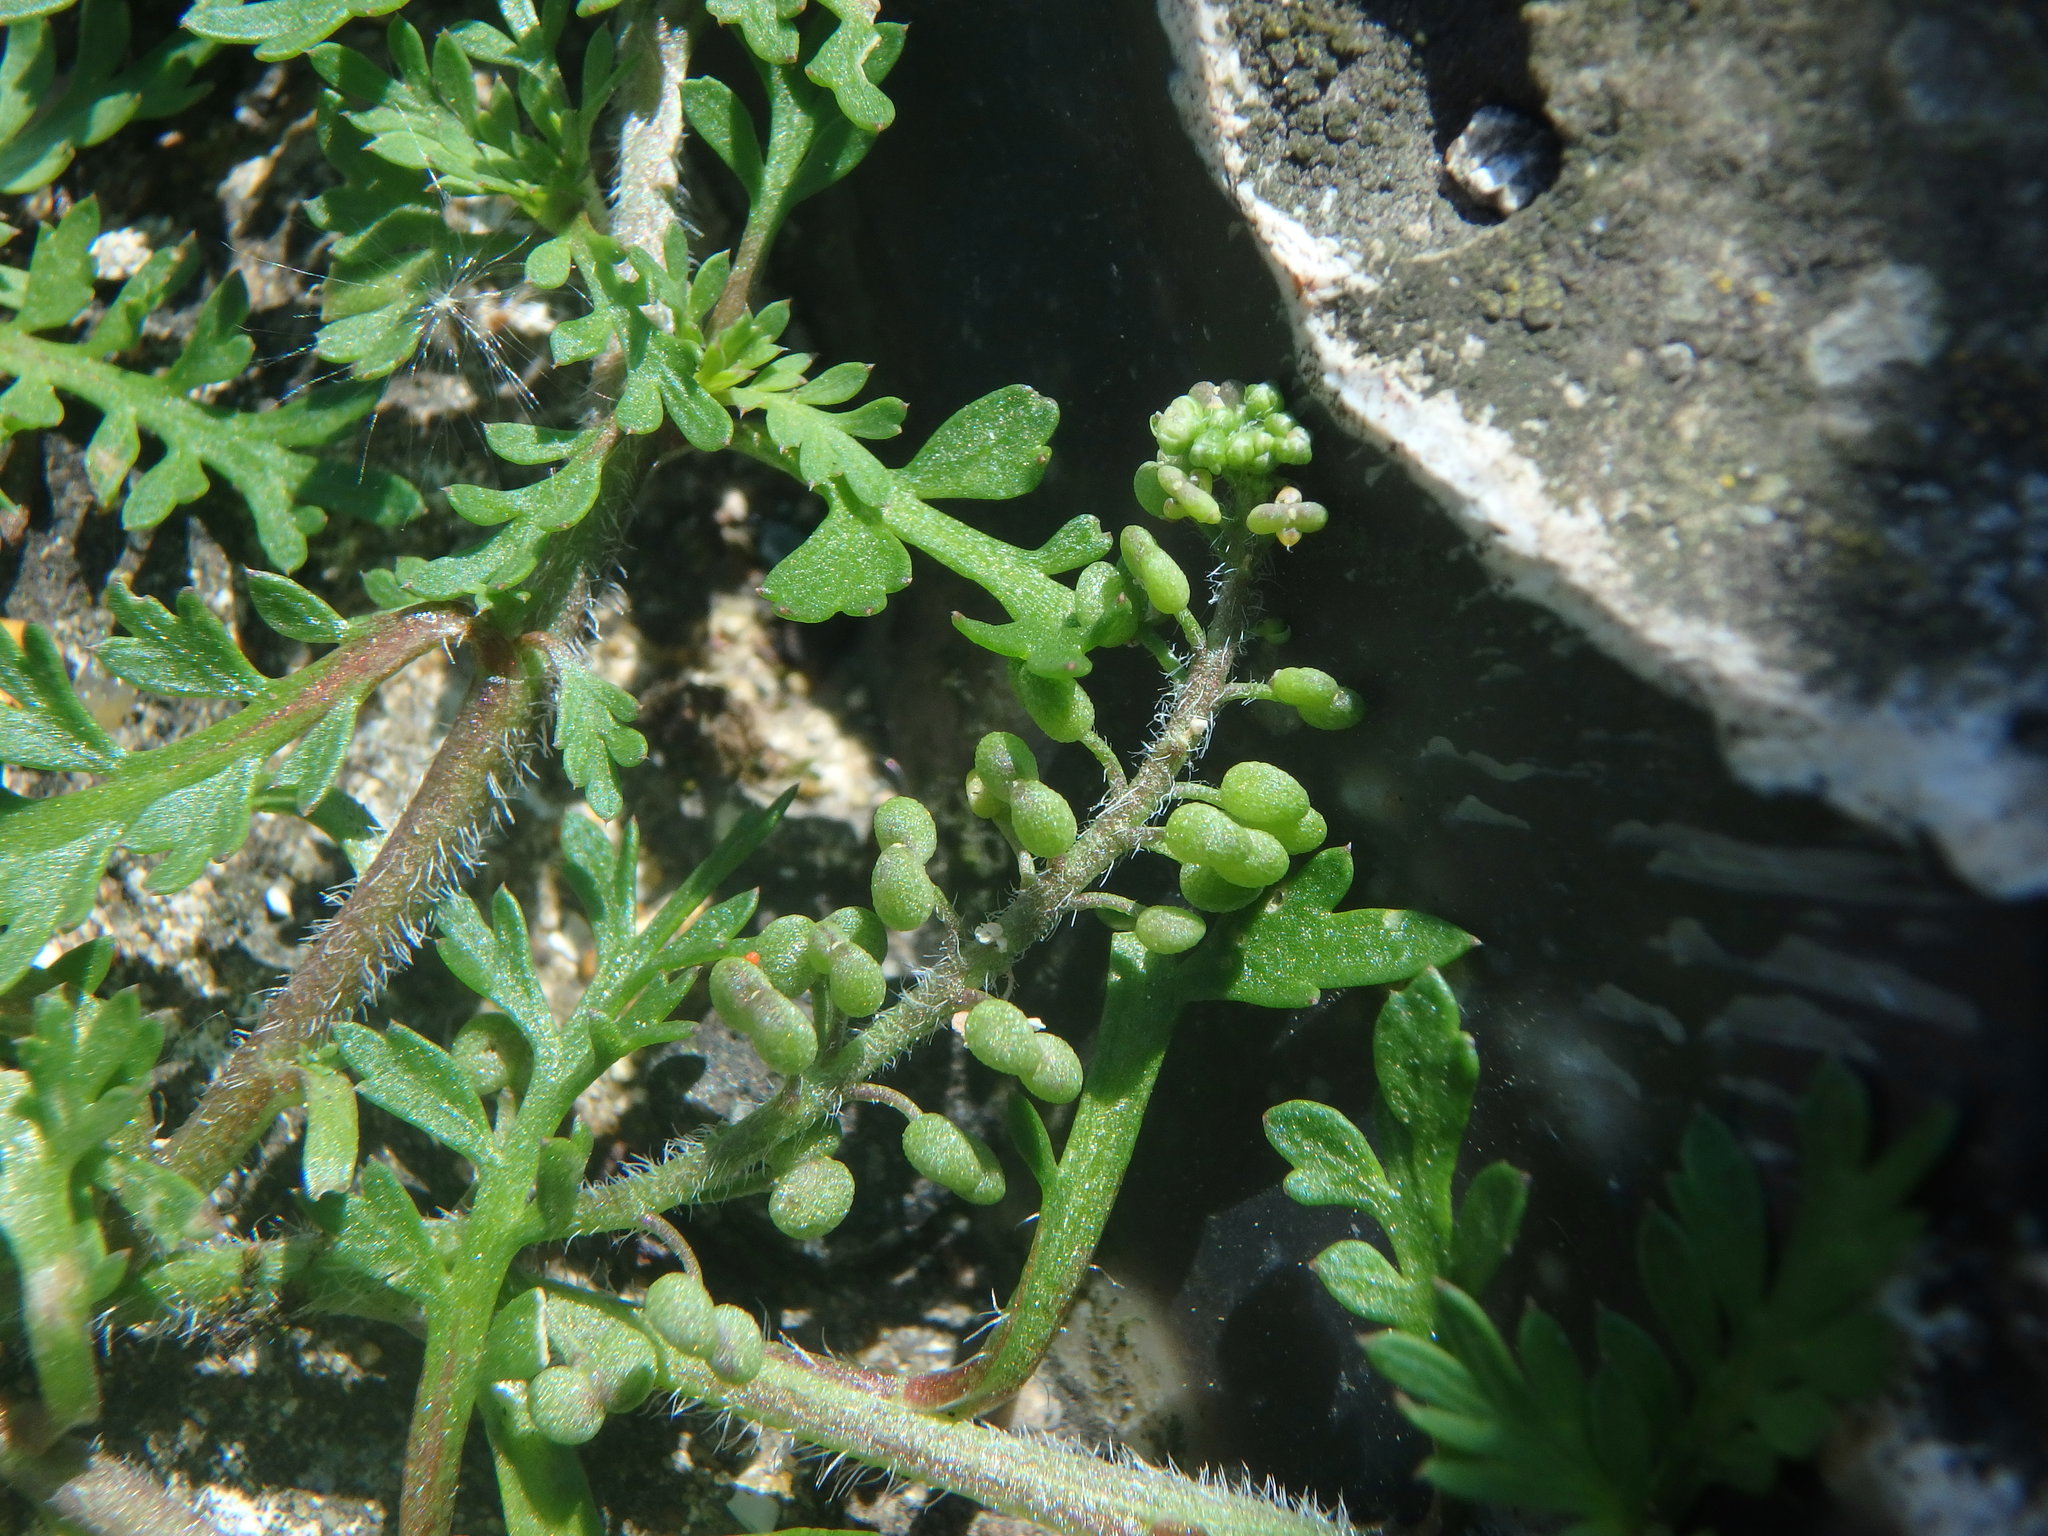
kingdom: Plantae
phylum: Tracheophyta
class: Magnoliopsida
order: Brassicales
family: Brassicaceae
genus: Lepidium
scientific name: Lepidium didymum
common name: Lesser swinecress
